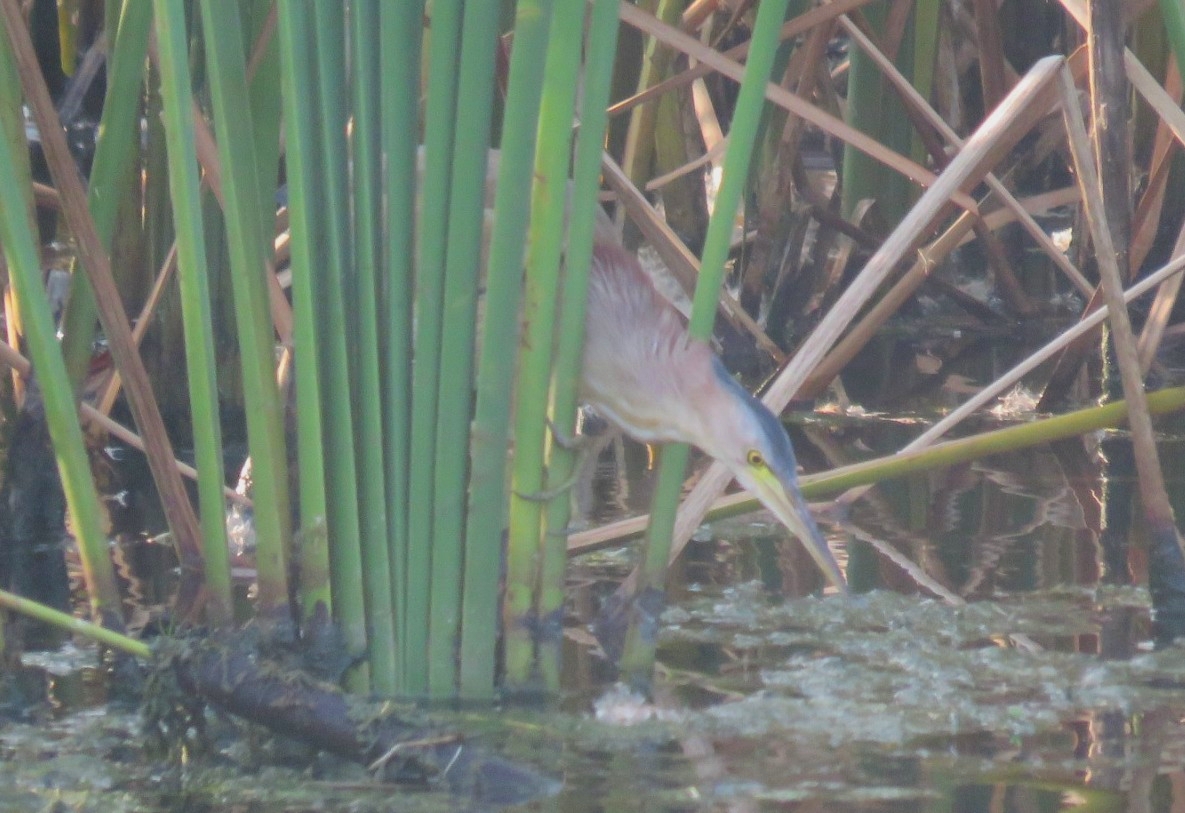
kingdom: Animalia
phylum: Chordata
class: Aves
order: Pelecaniformes
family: Ardeidae
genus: Ixobrychus
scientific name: Ixobrychus sinensis
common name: Yellow bittern
